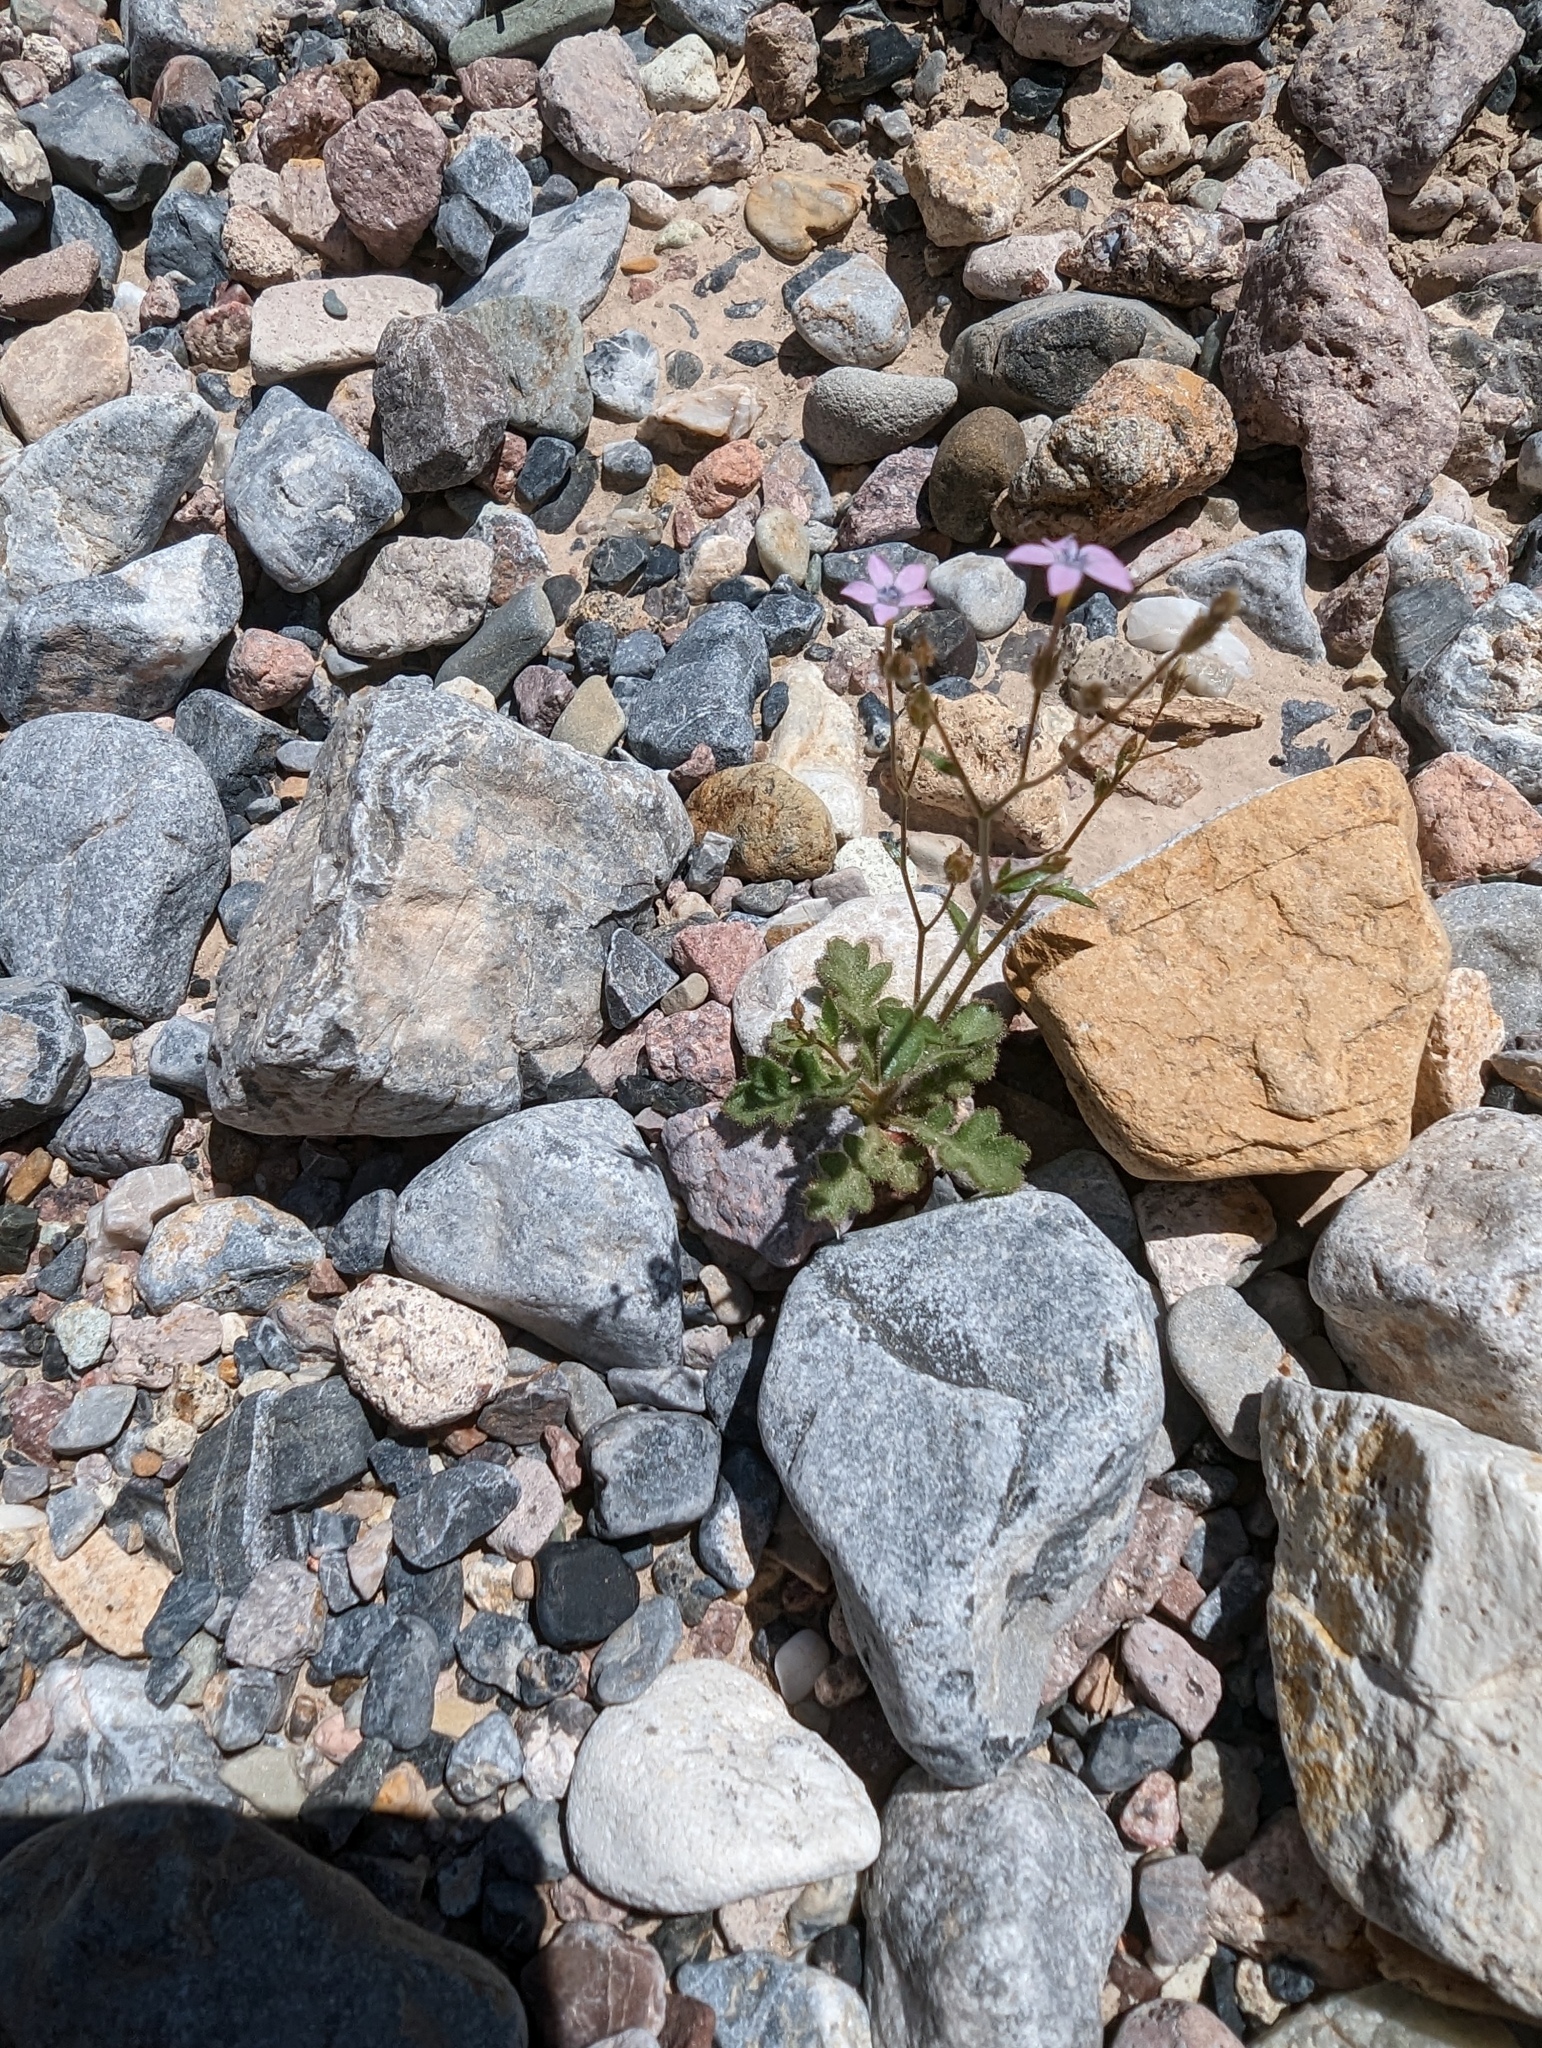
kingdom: Plantae
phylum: Tracheophyta
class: Magnoliopsida
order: Ericales
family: Polemoniaceae
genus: Gilia
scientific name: Gilia scopulorum
